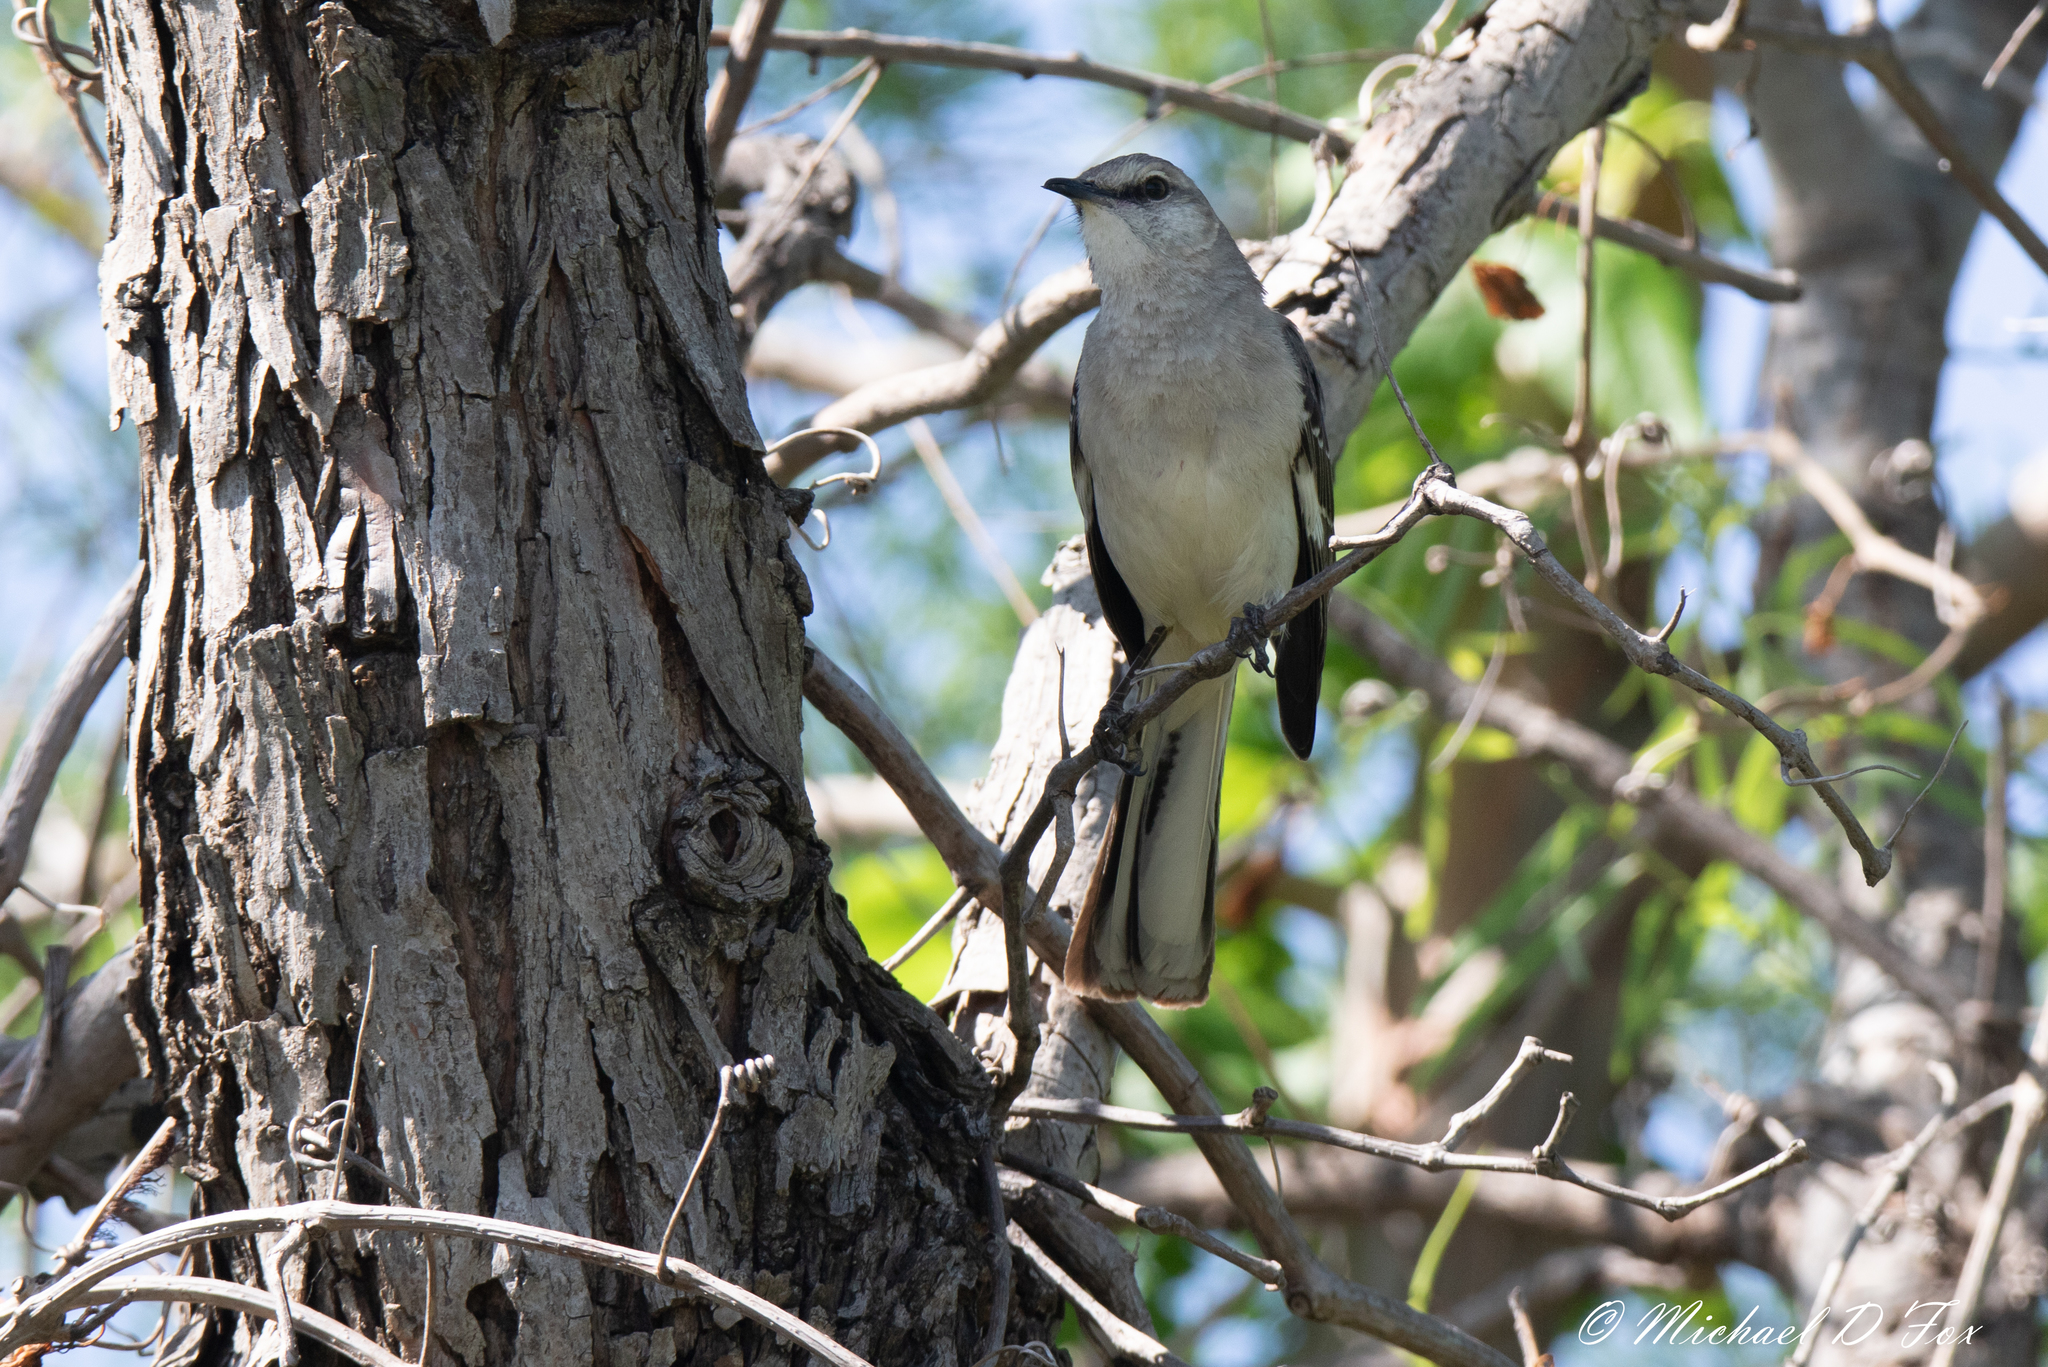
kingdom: Animalia
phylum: Chordata
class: Aves
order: Passeriformes
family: Mimidae
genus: Mimus
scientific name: Mimus polyglottos
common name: Northern mockingbird
